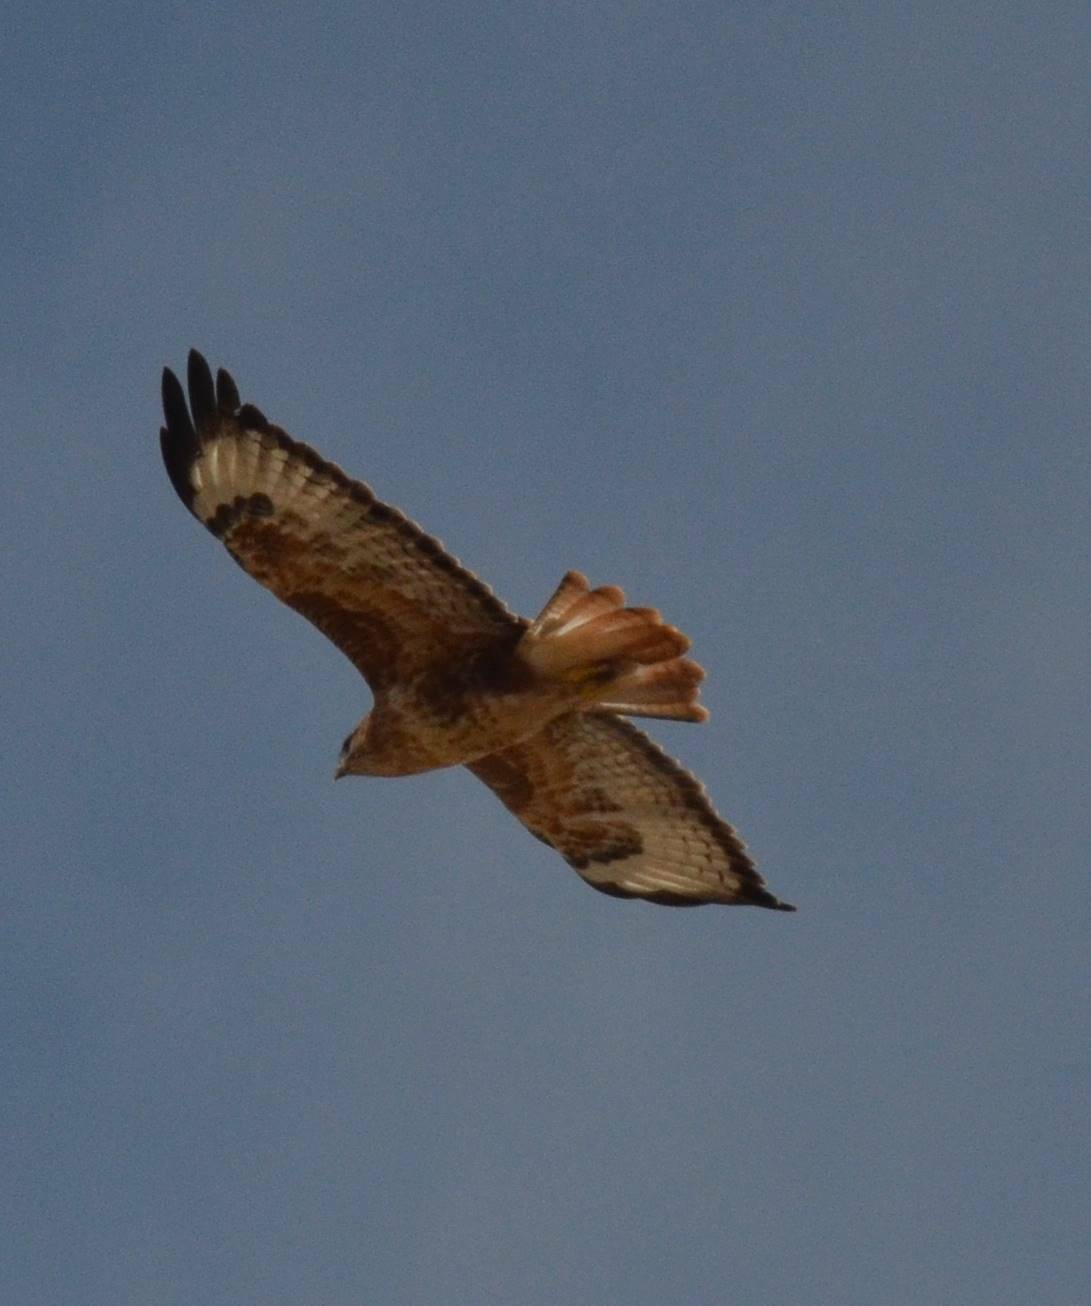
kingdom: Animalia
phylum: Chordata
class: Aves
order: Accipitriformes
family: Accipitridae
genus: Buteo
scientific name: Buteo rufinus
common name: Long-legged buzzard
